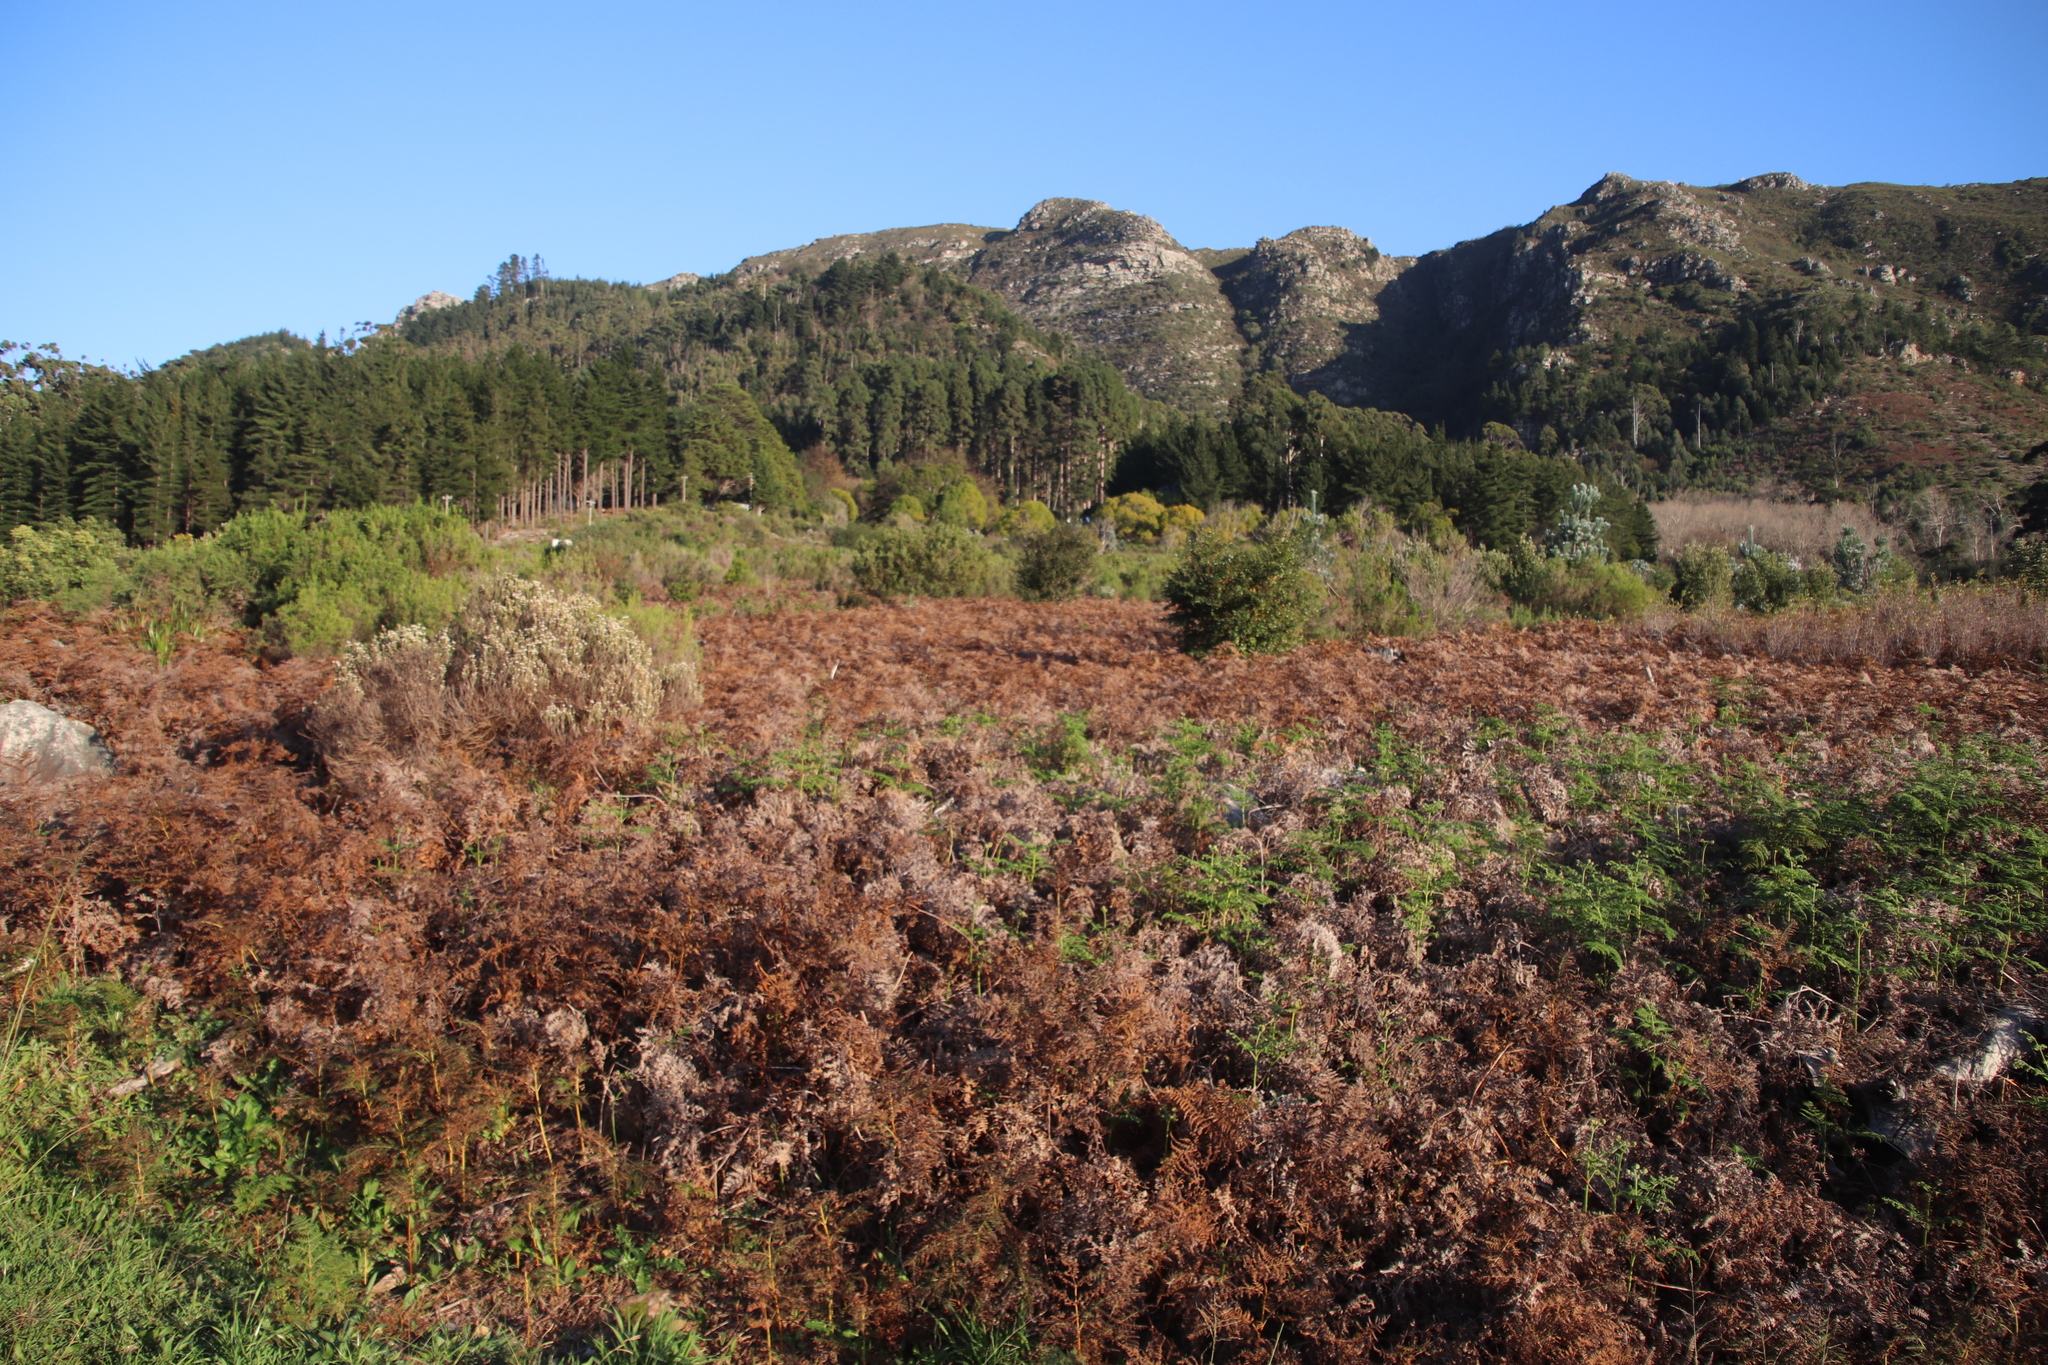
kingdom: Plantae
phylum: Tracheophyta
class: Polypodiopsida
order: Polypodiales
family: Dennstaedtiaceae
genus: Pteridium
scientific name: Pteridium aquilinum
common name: Bracken
